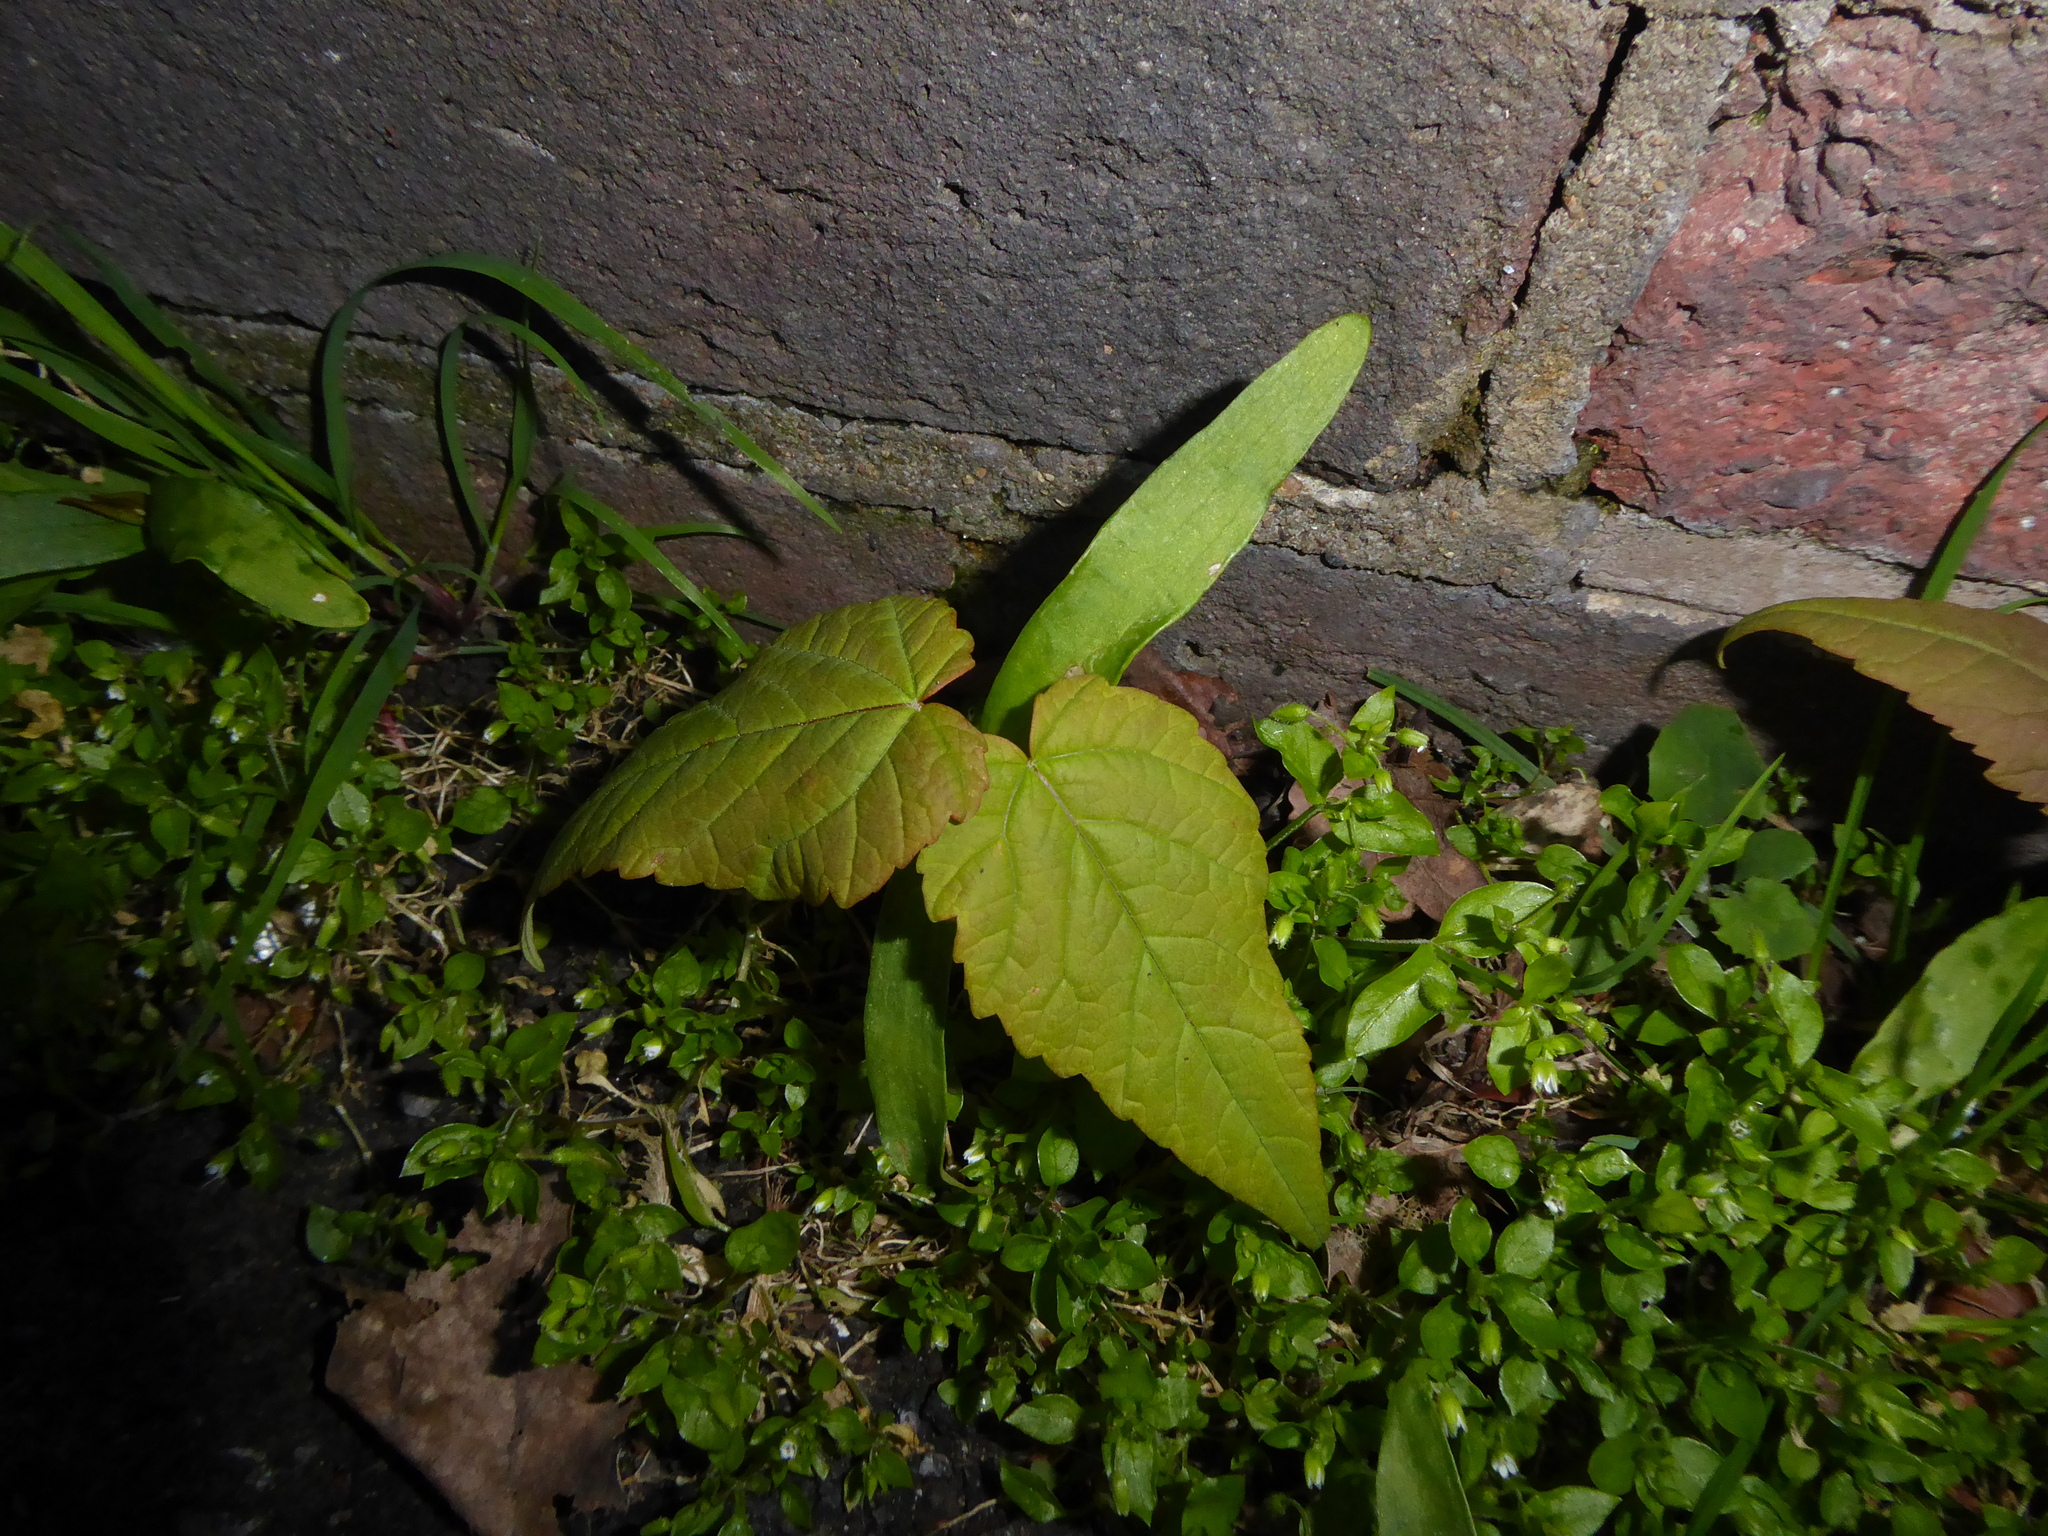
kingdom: Plantae
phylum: Tracheophyta
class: Magnoliopsida
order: Sapindales
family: Sapindaceae
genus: Acer
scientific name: Acer pseudoplatanus
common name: Sycamore
